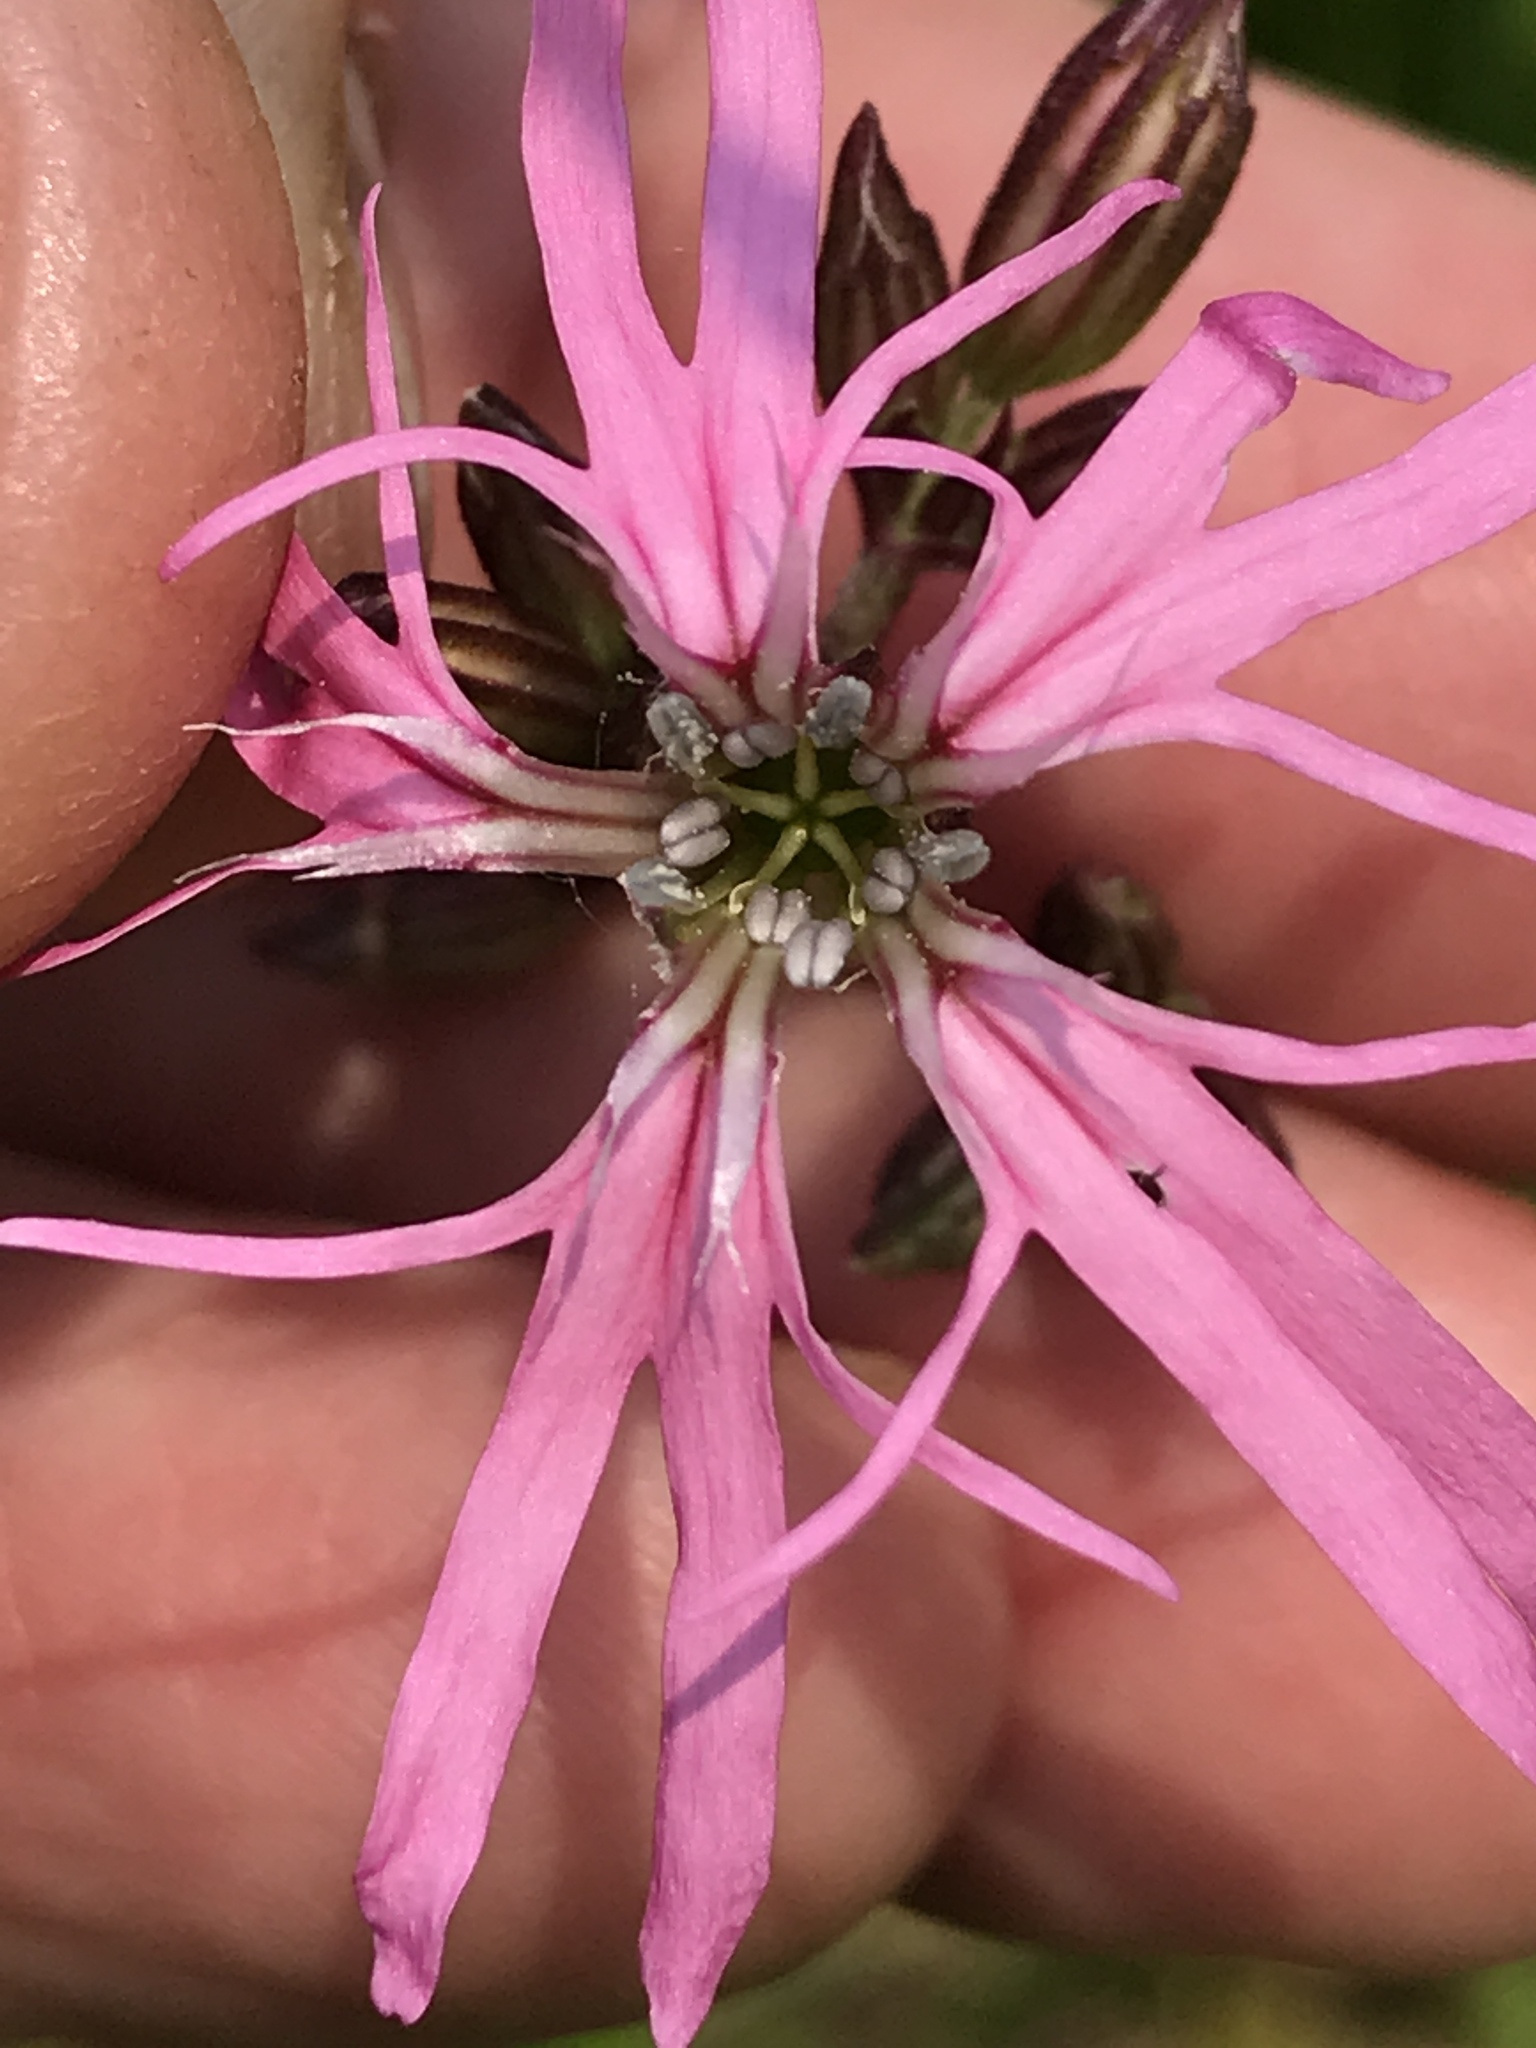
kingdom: Plantae
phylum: Tracheophyta
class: Magnoliopsida
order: Caryophyllales
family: Caryophyllaceae
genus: Silene
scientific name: Silene flos-cuculi
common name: Ragged-robin
